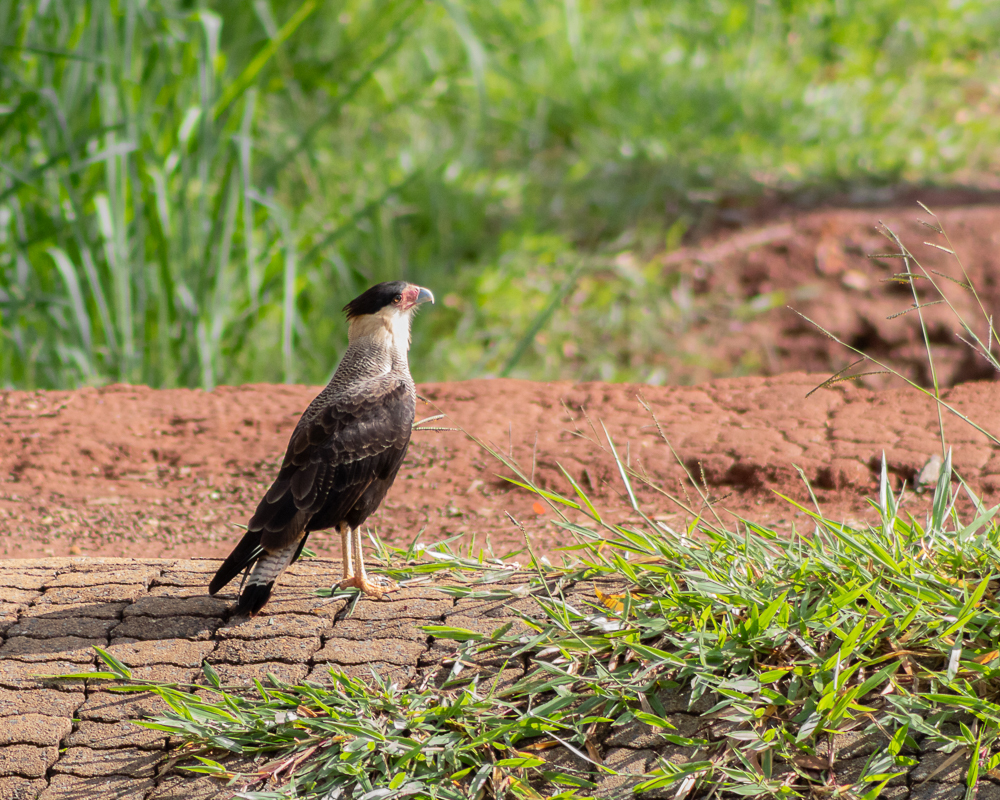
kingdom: Animalia
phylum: Chordata
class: Aves
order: Falconiformes
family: Falconidae
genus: Caracara
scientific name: Caracara plancus
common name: Southern caracara
